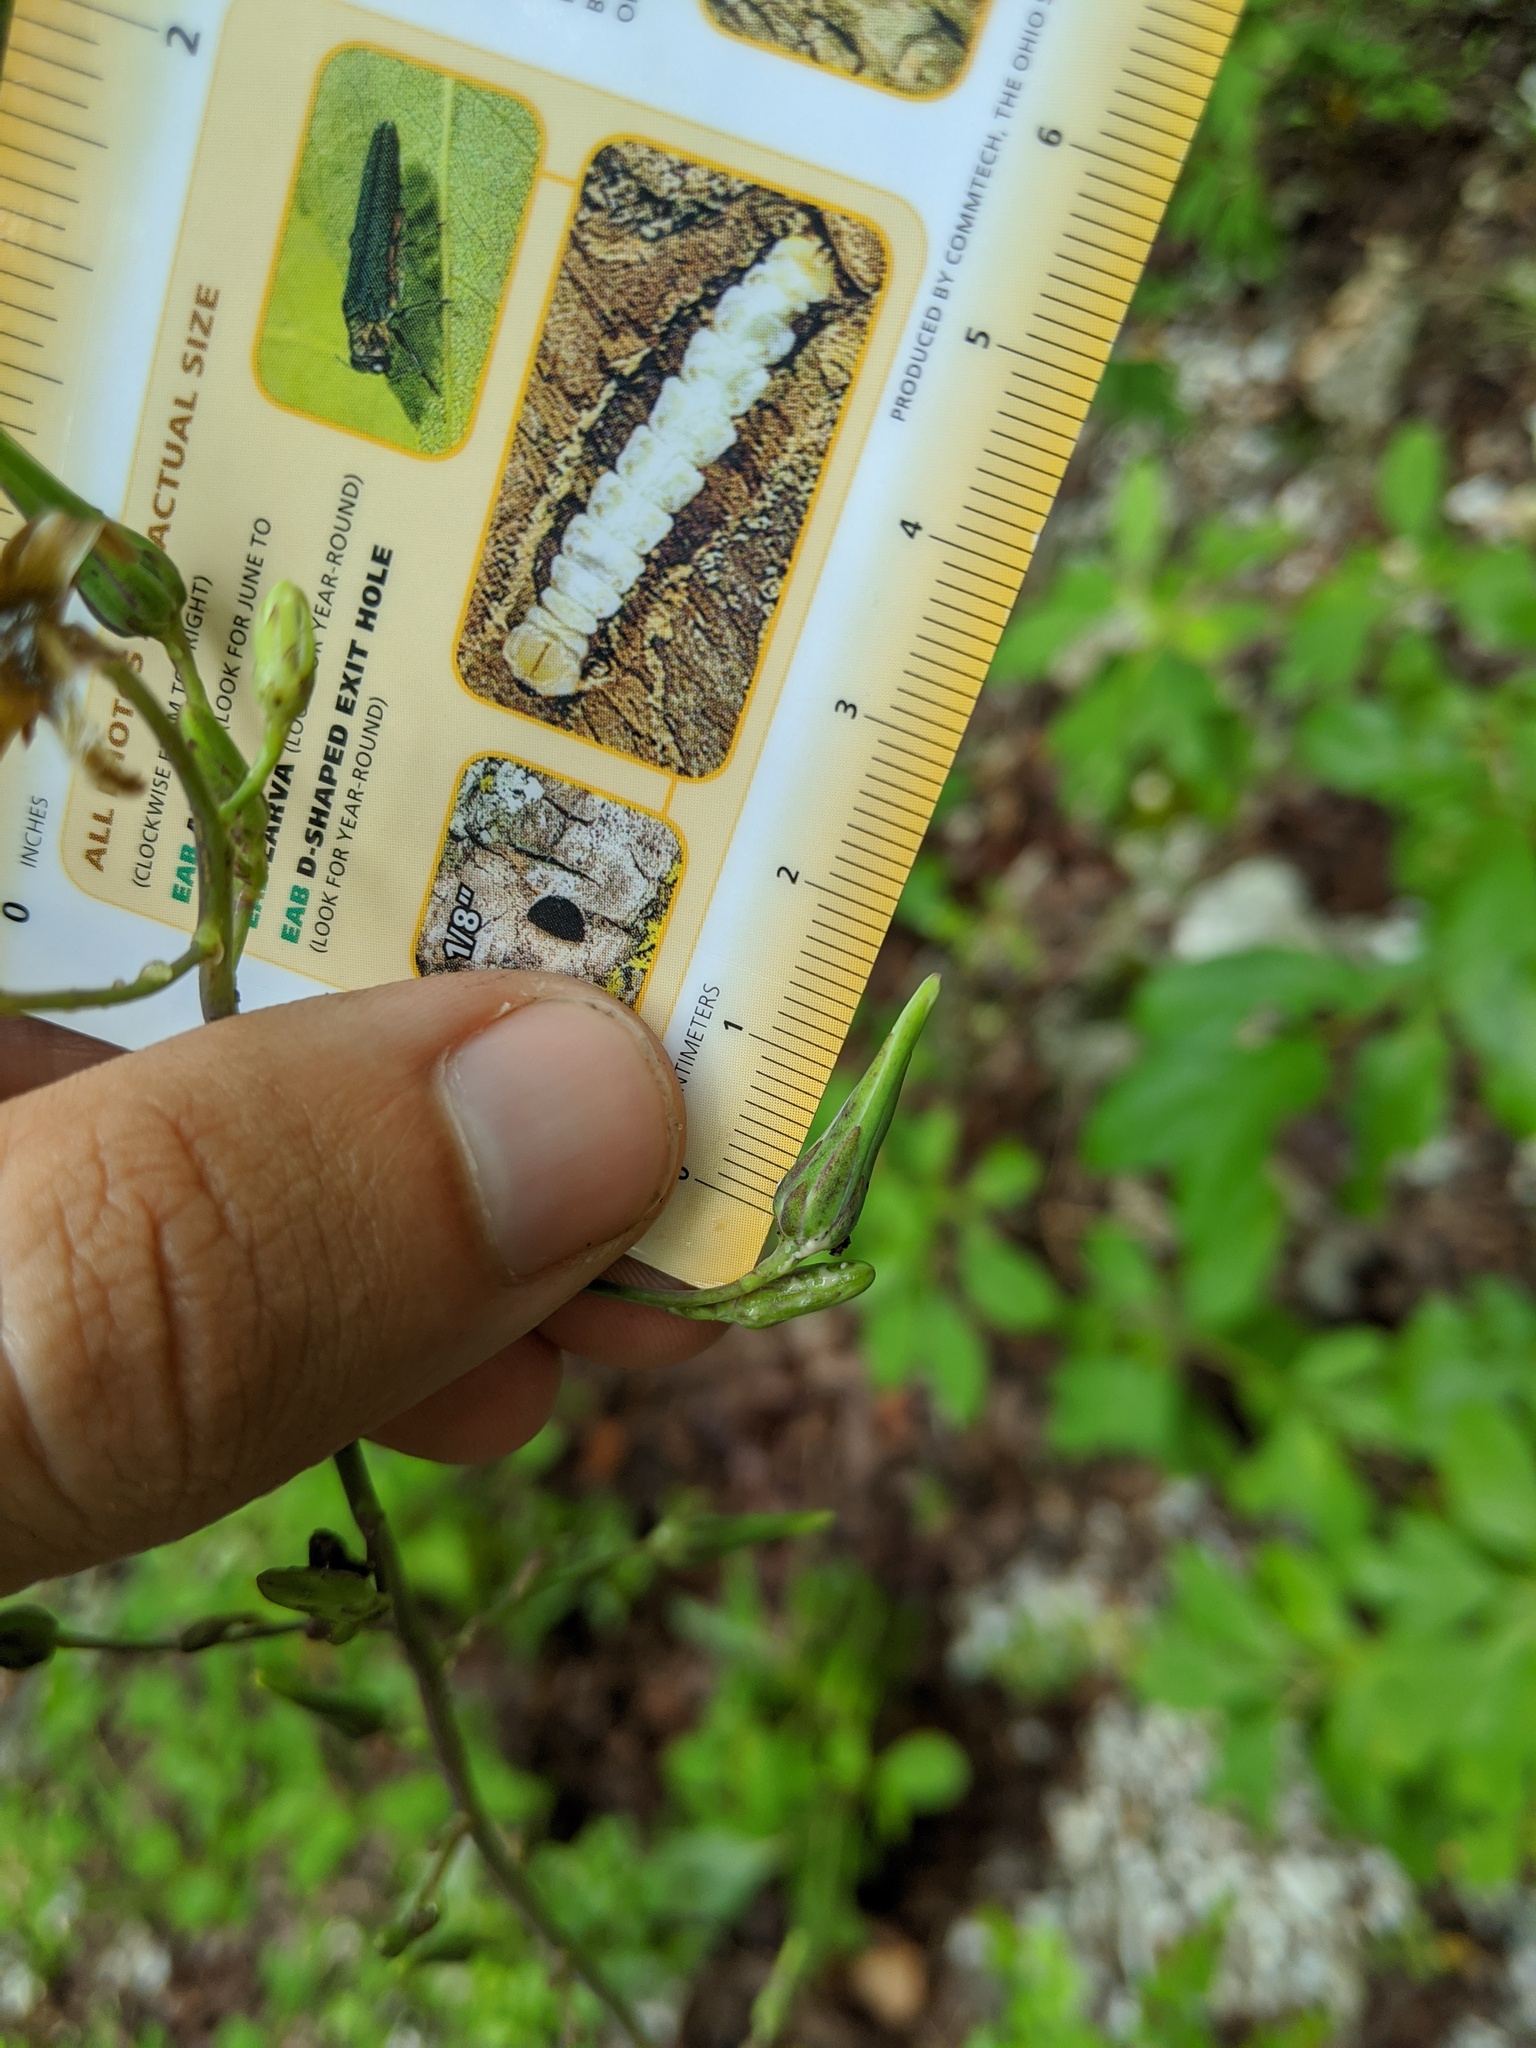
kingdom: Plantae
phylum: Tracheophyta
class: Magnoliopsida
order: Asterales
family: Asteraceae
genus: Lactuca
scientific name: Lactuca hirsuta
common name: Hairy lettuce
